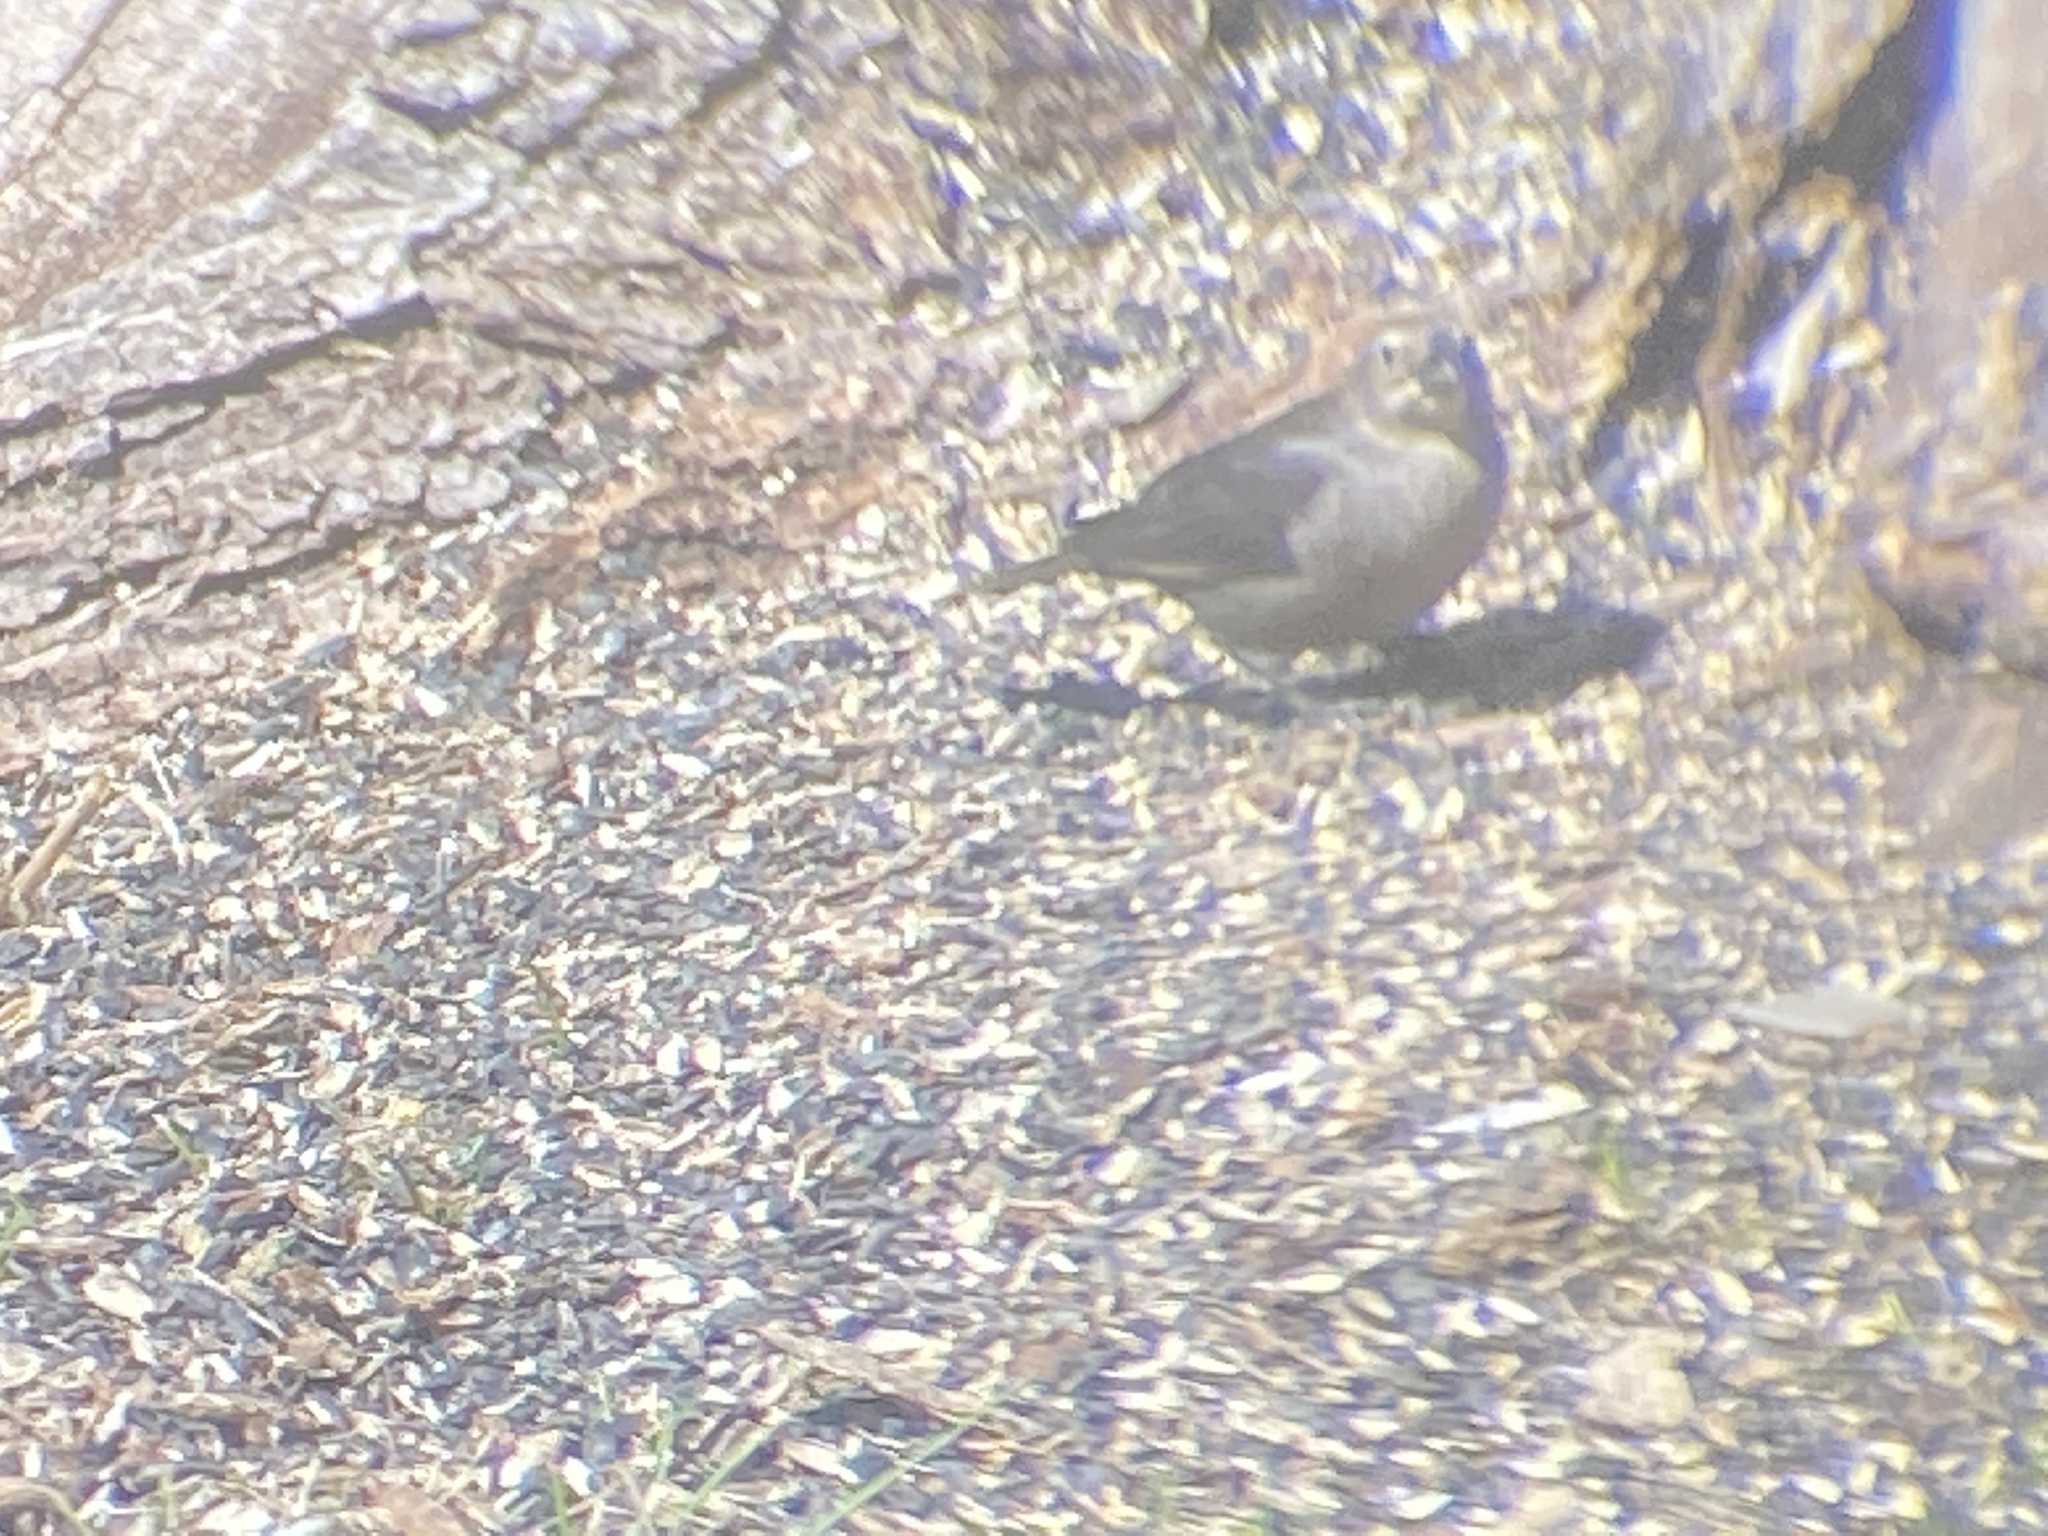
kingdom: Animalia
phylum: Chordata
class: Aves
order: Passeriformes
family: Icteridae
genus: Molothrus
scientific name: Molothrus ater
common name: Brown-headed cowbird
